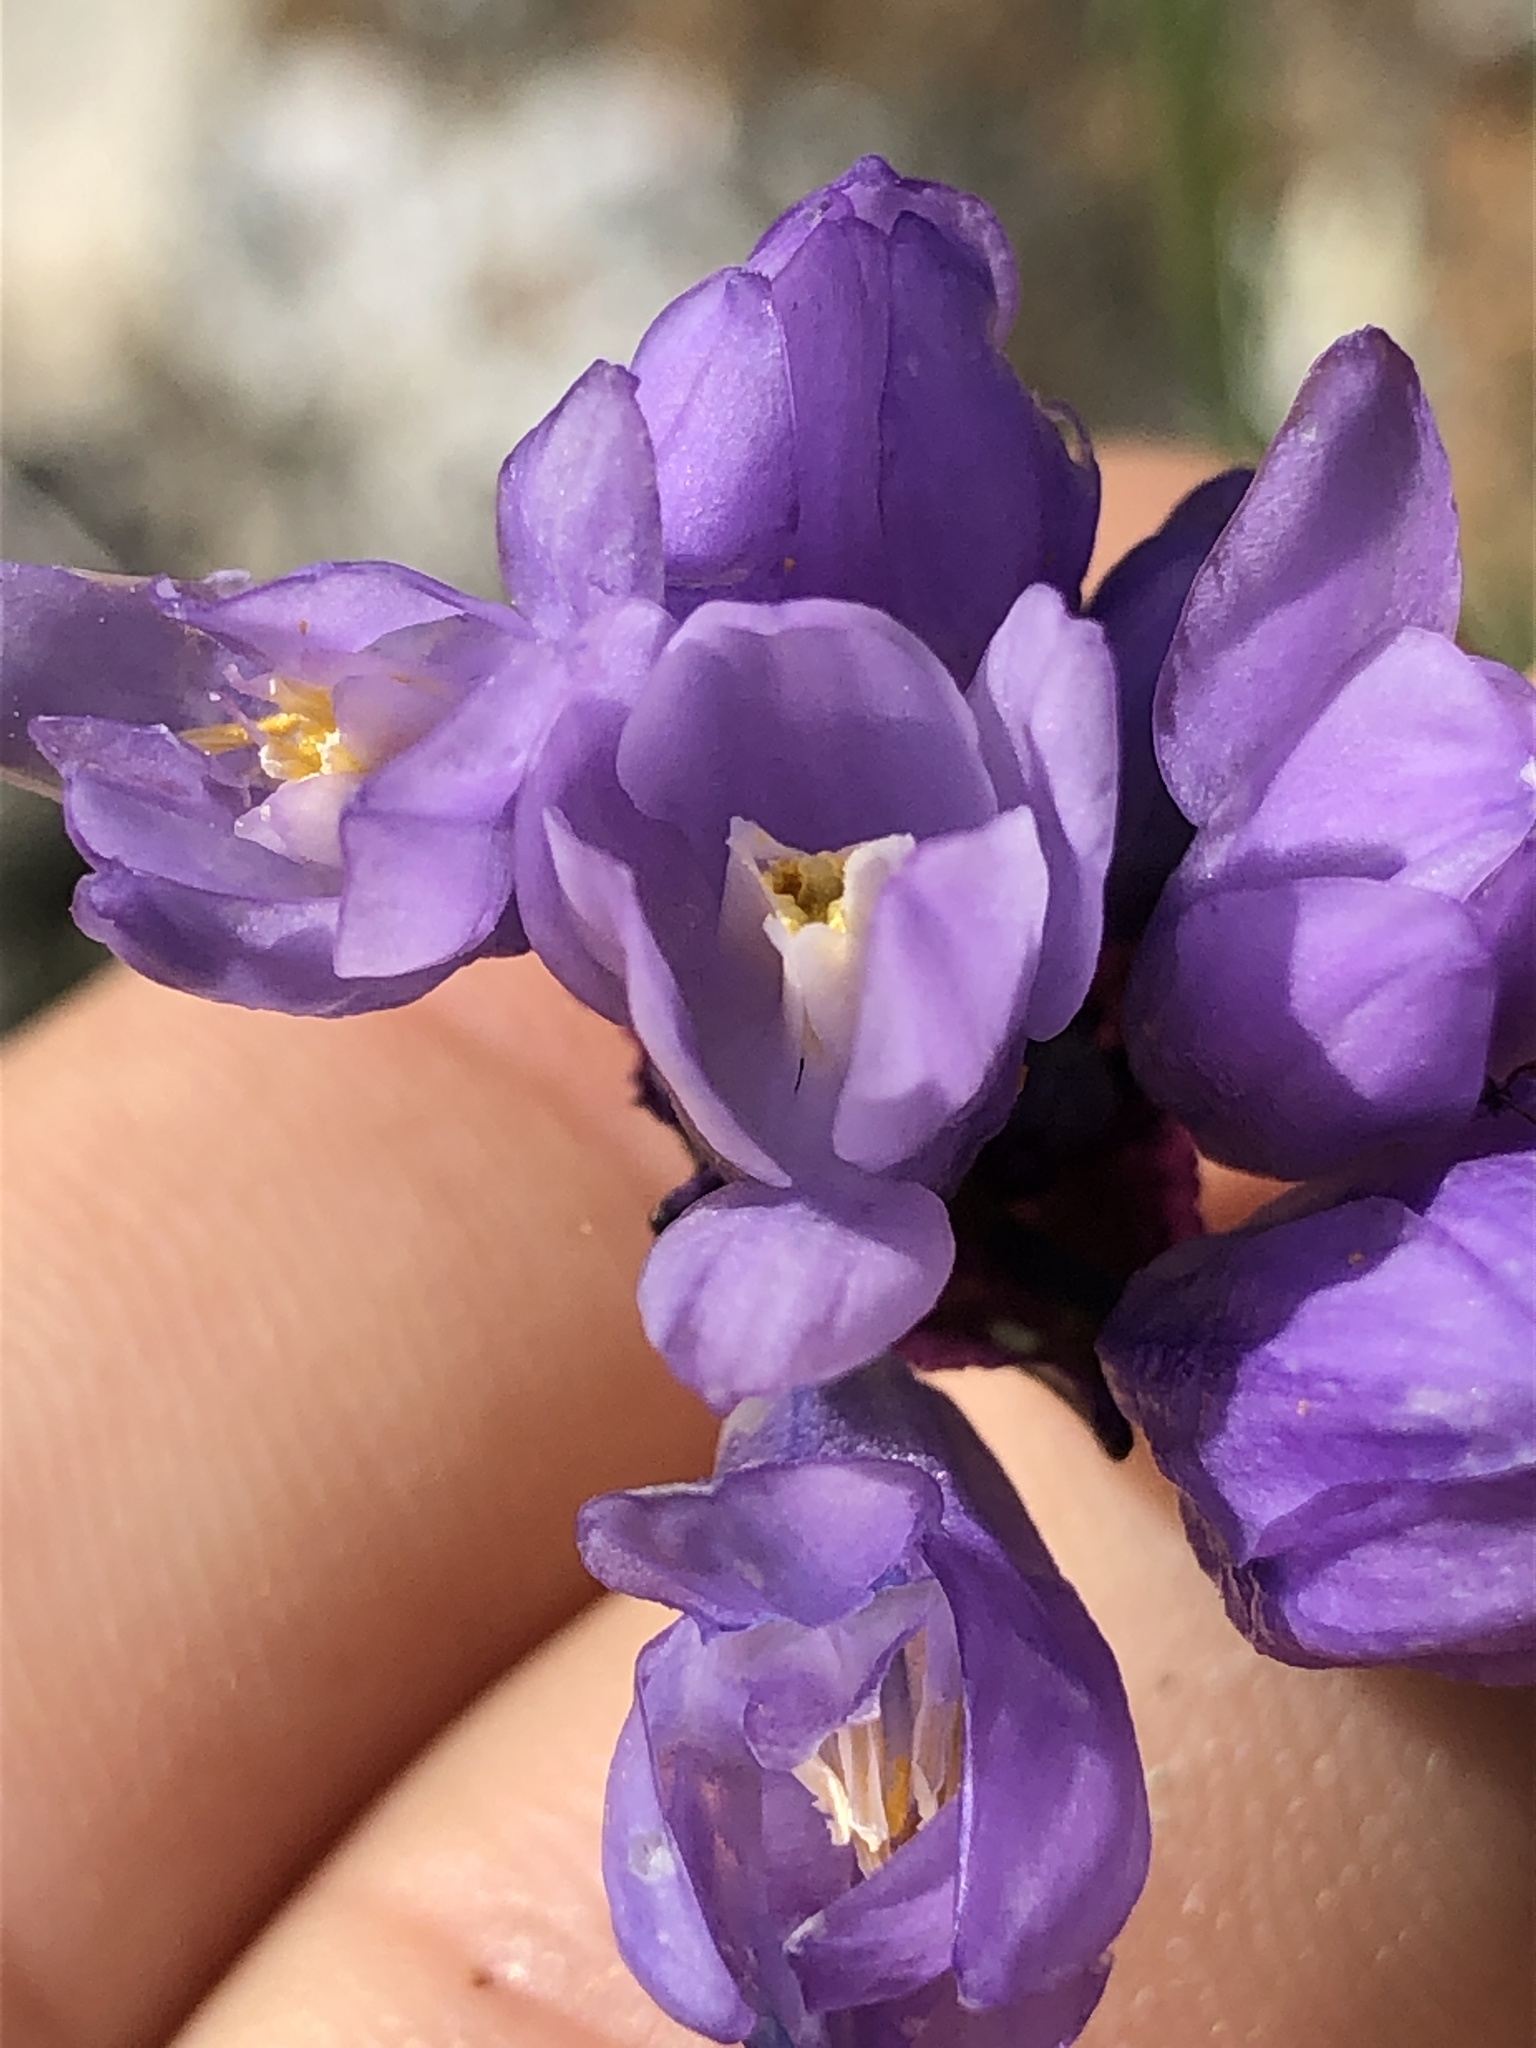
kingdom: Plantae
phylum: Tracheophyta
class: Liliopsida
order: Asparagales
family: Asparagaceae
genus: Dipterostemon
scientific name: Dipterostemon capitatus
